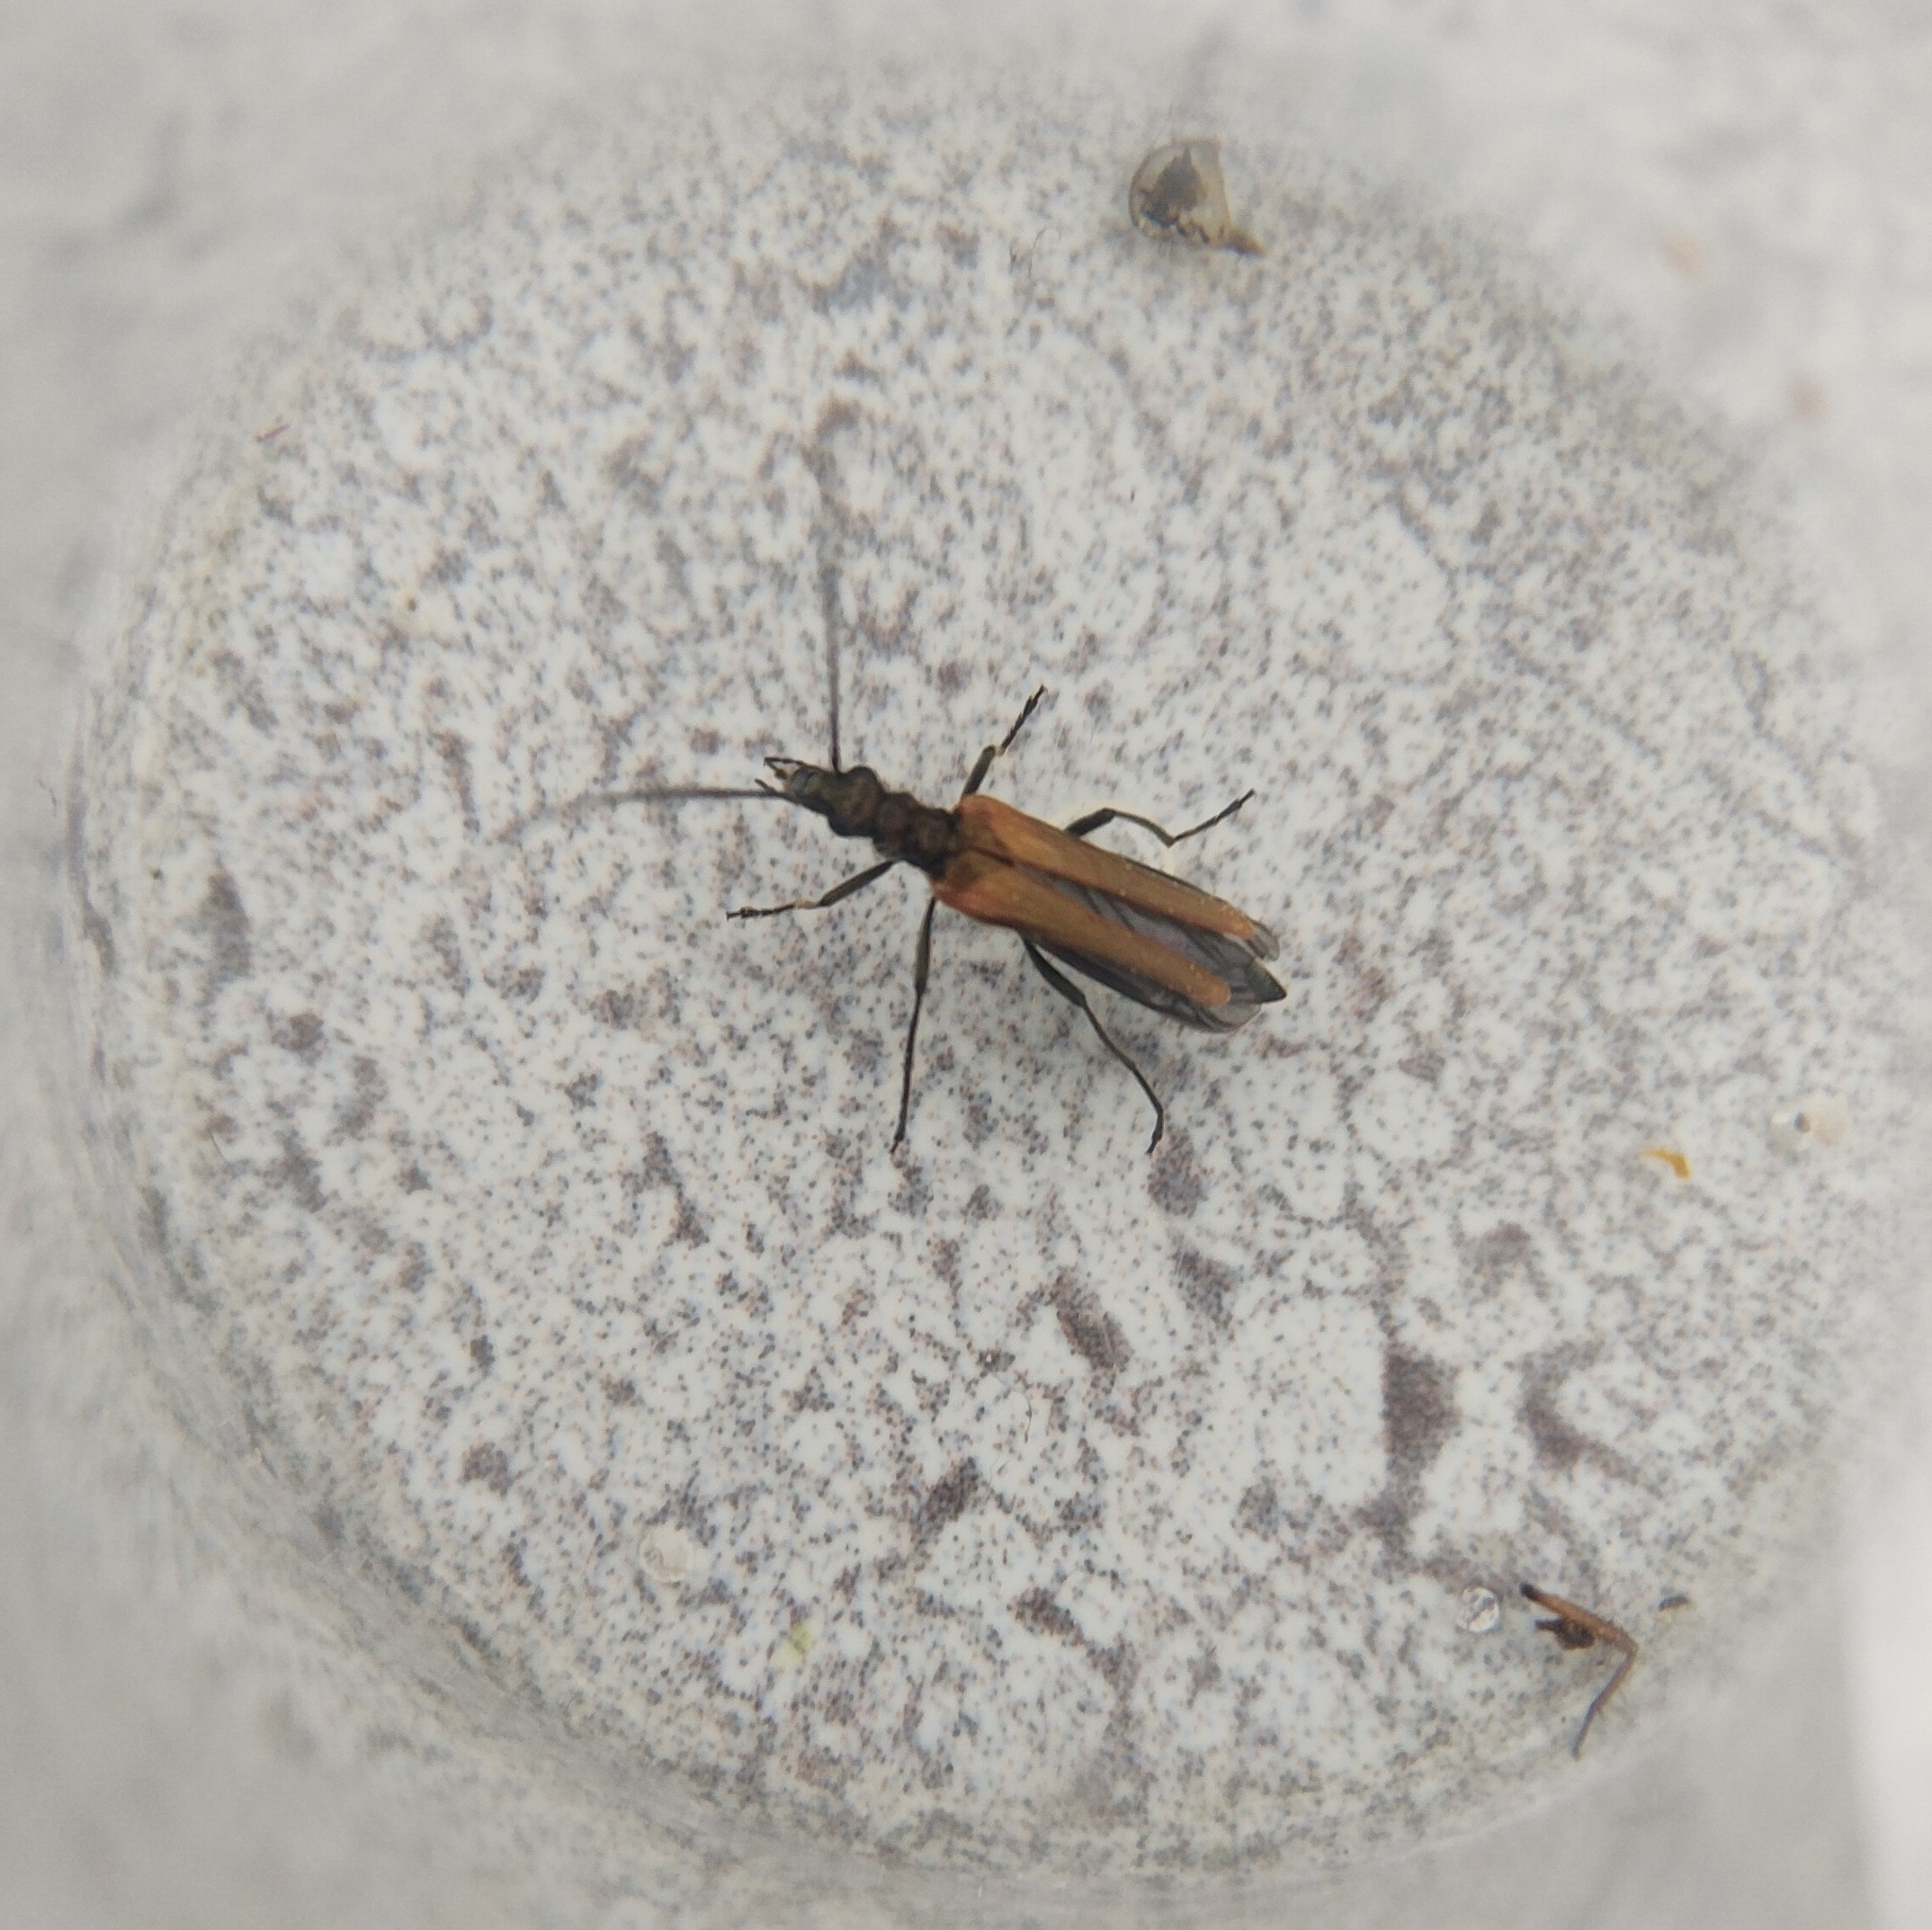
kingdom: Animalia
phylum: Arthropoda
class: Insecta
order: Coleoptera
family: Oedemeridae
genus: Oedemera
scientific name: Oedemera femorata
